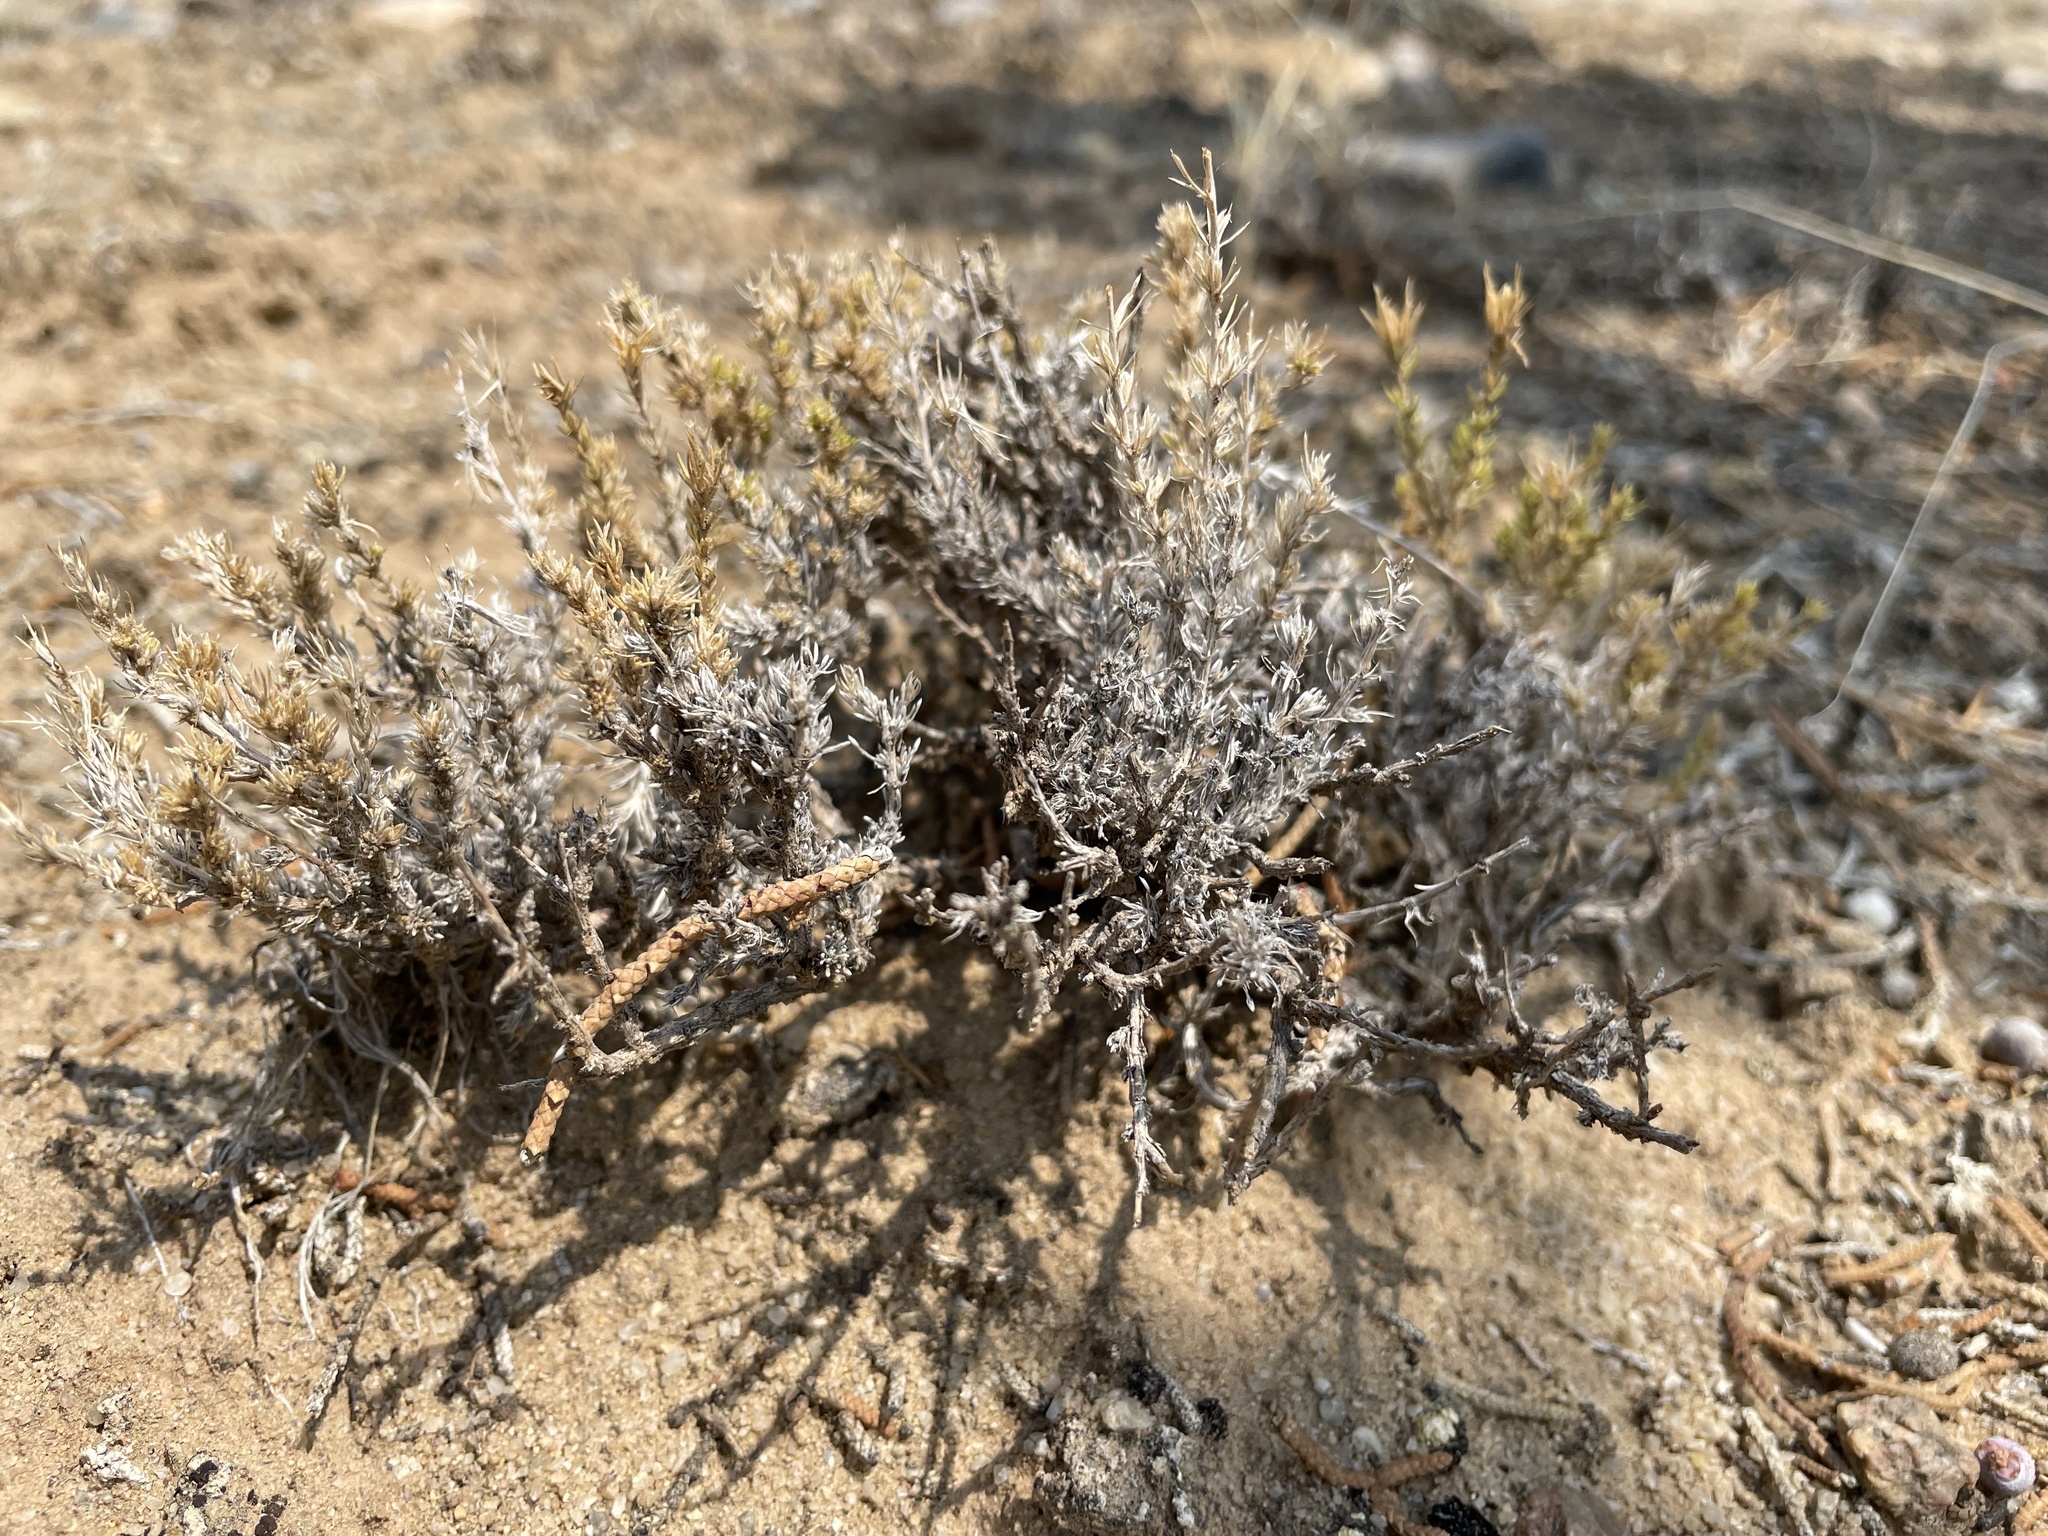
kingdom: Plantae
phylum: Tracheophyta
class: Magnoliopsida
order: Ericales
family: Polemoniaceae
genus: Linanthus
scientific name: Linanthus pungens
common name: Granite prickly phlox
